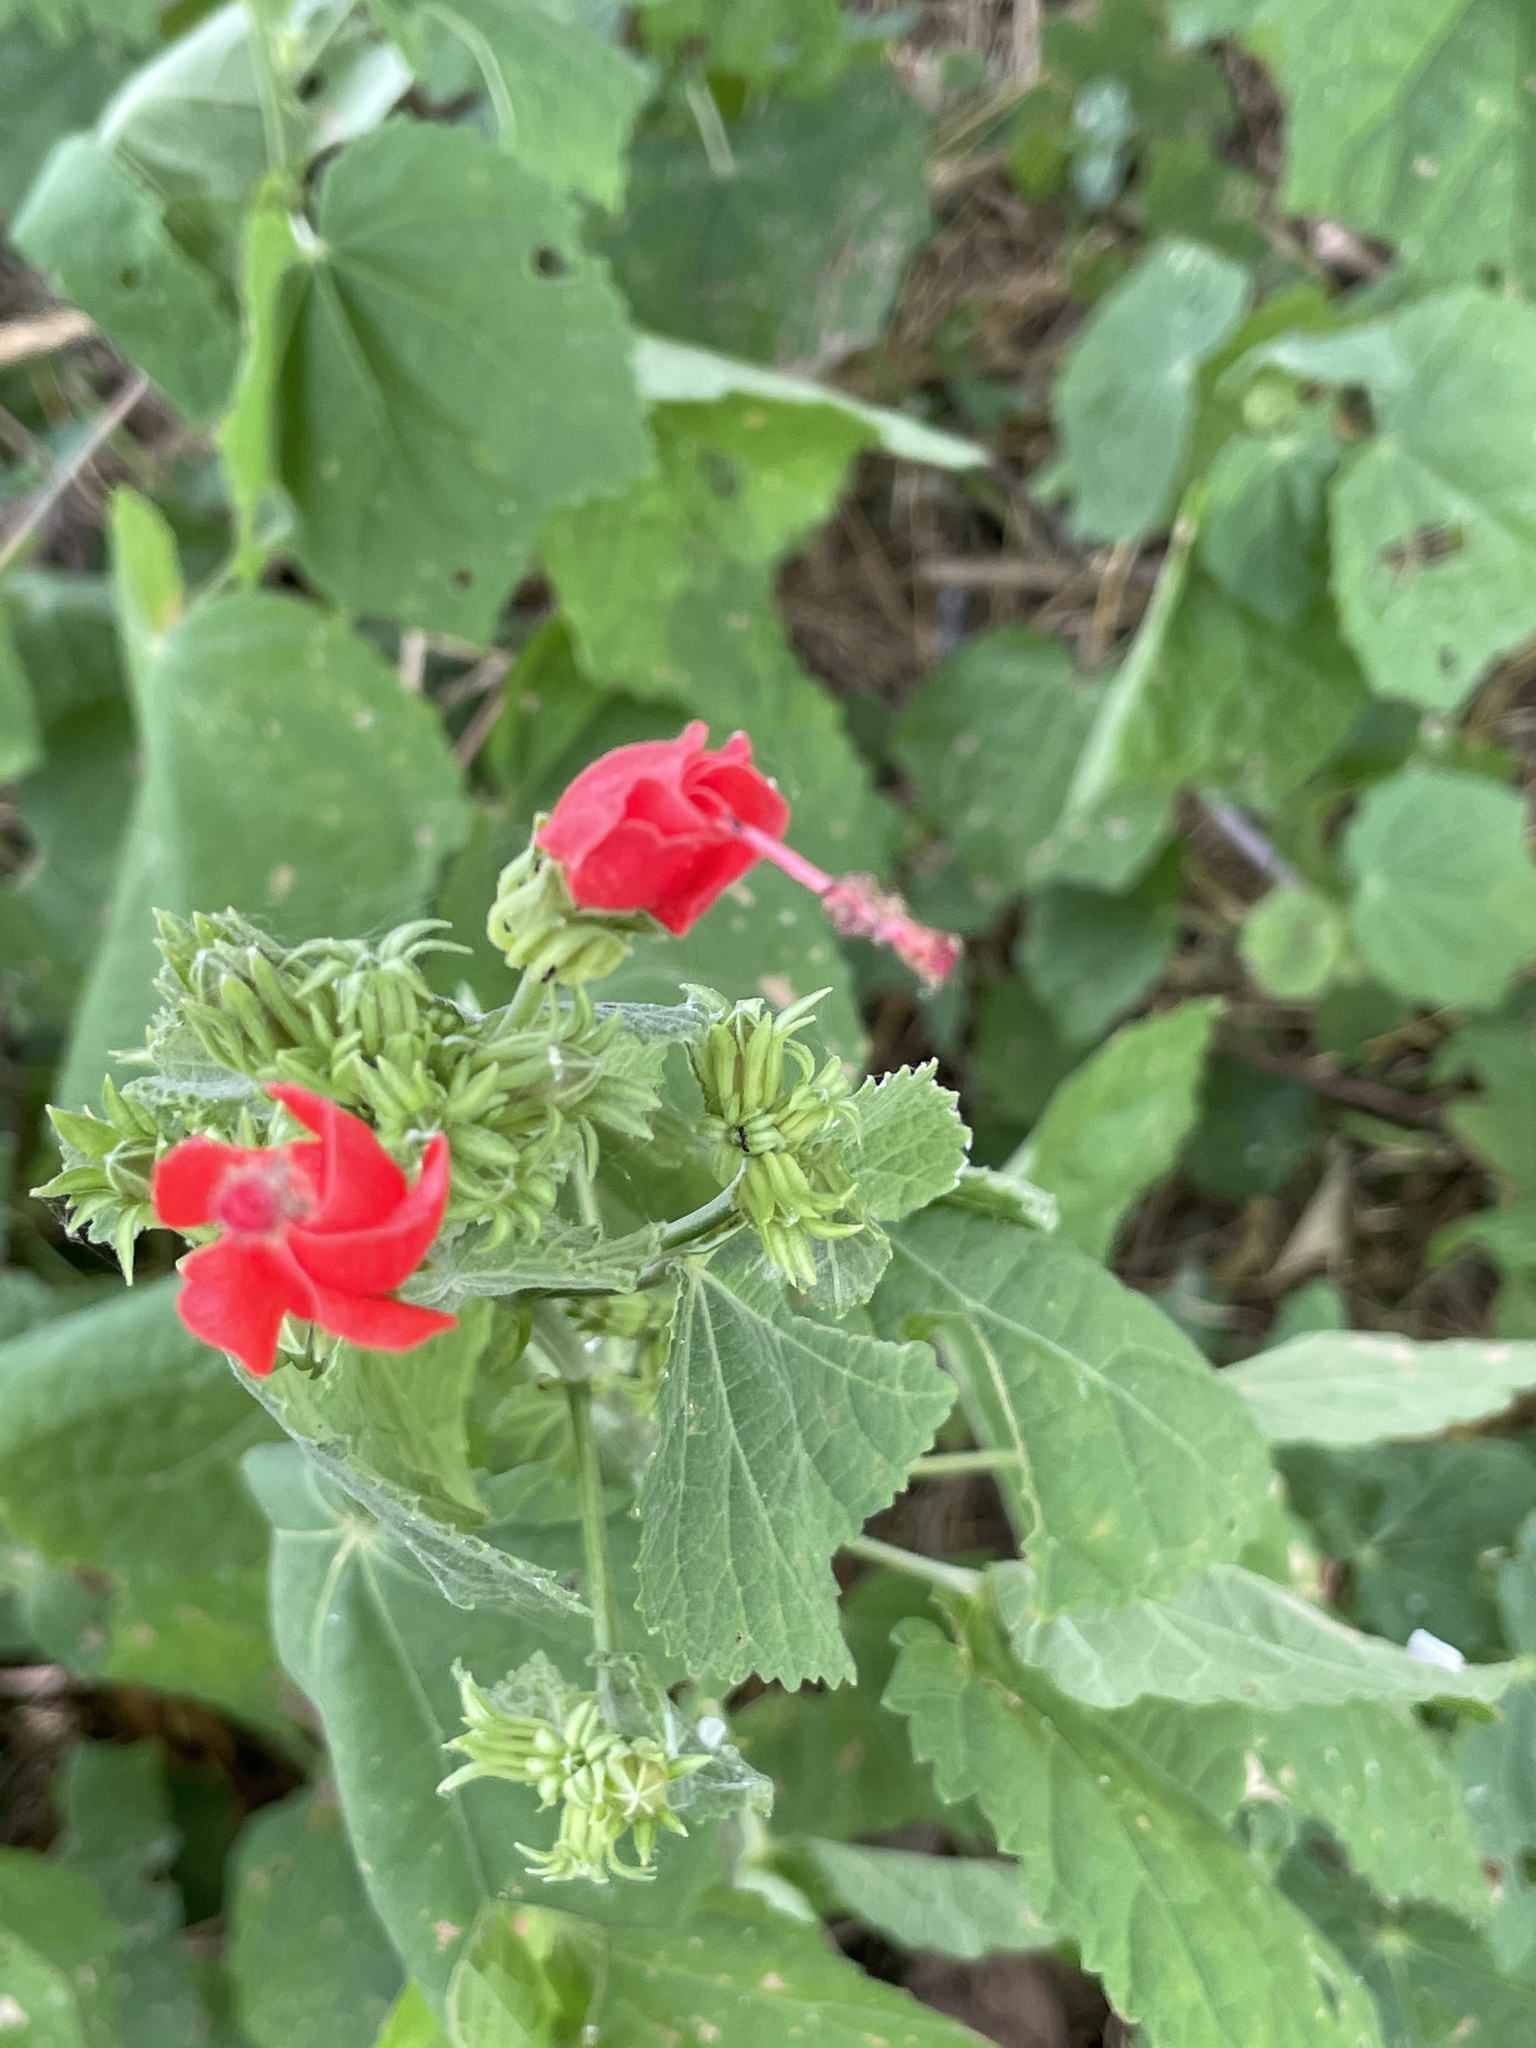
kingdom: Plantae
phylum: Tracheophyta
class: Magnoliopsida
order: Malvales
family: Malvaceae
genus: Malvaviscus
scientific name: Malvaviscus arboreus
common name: Wax mallow
